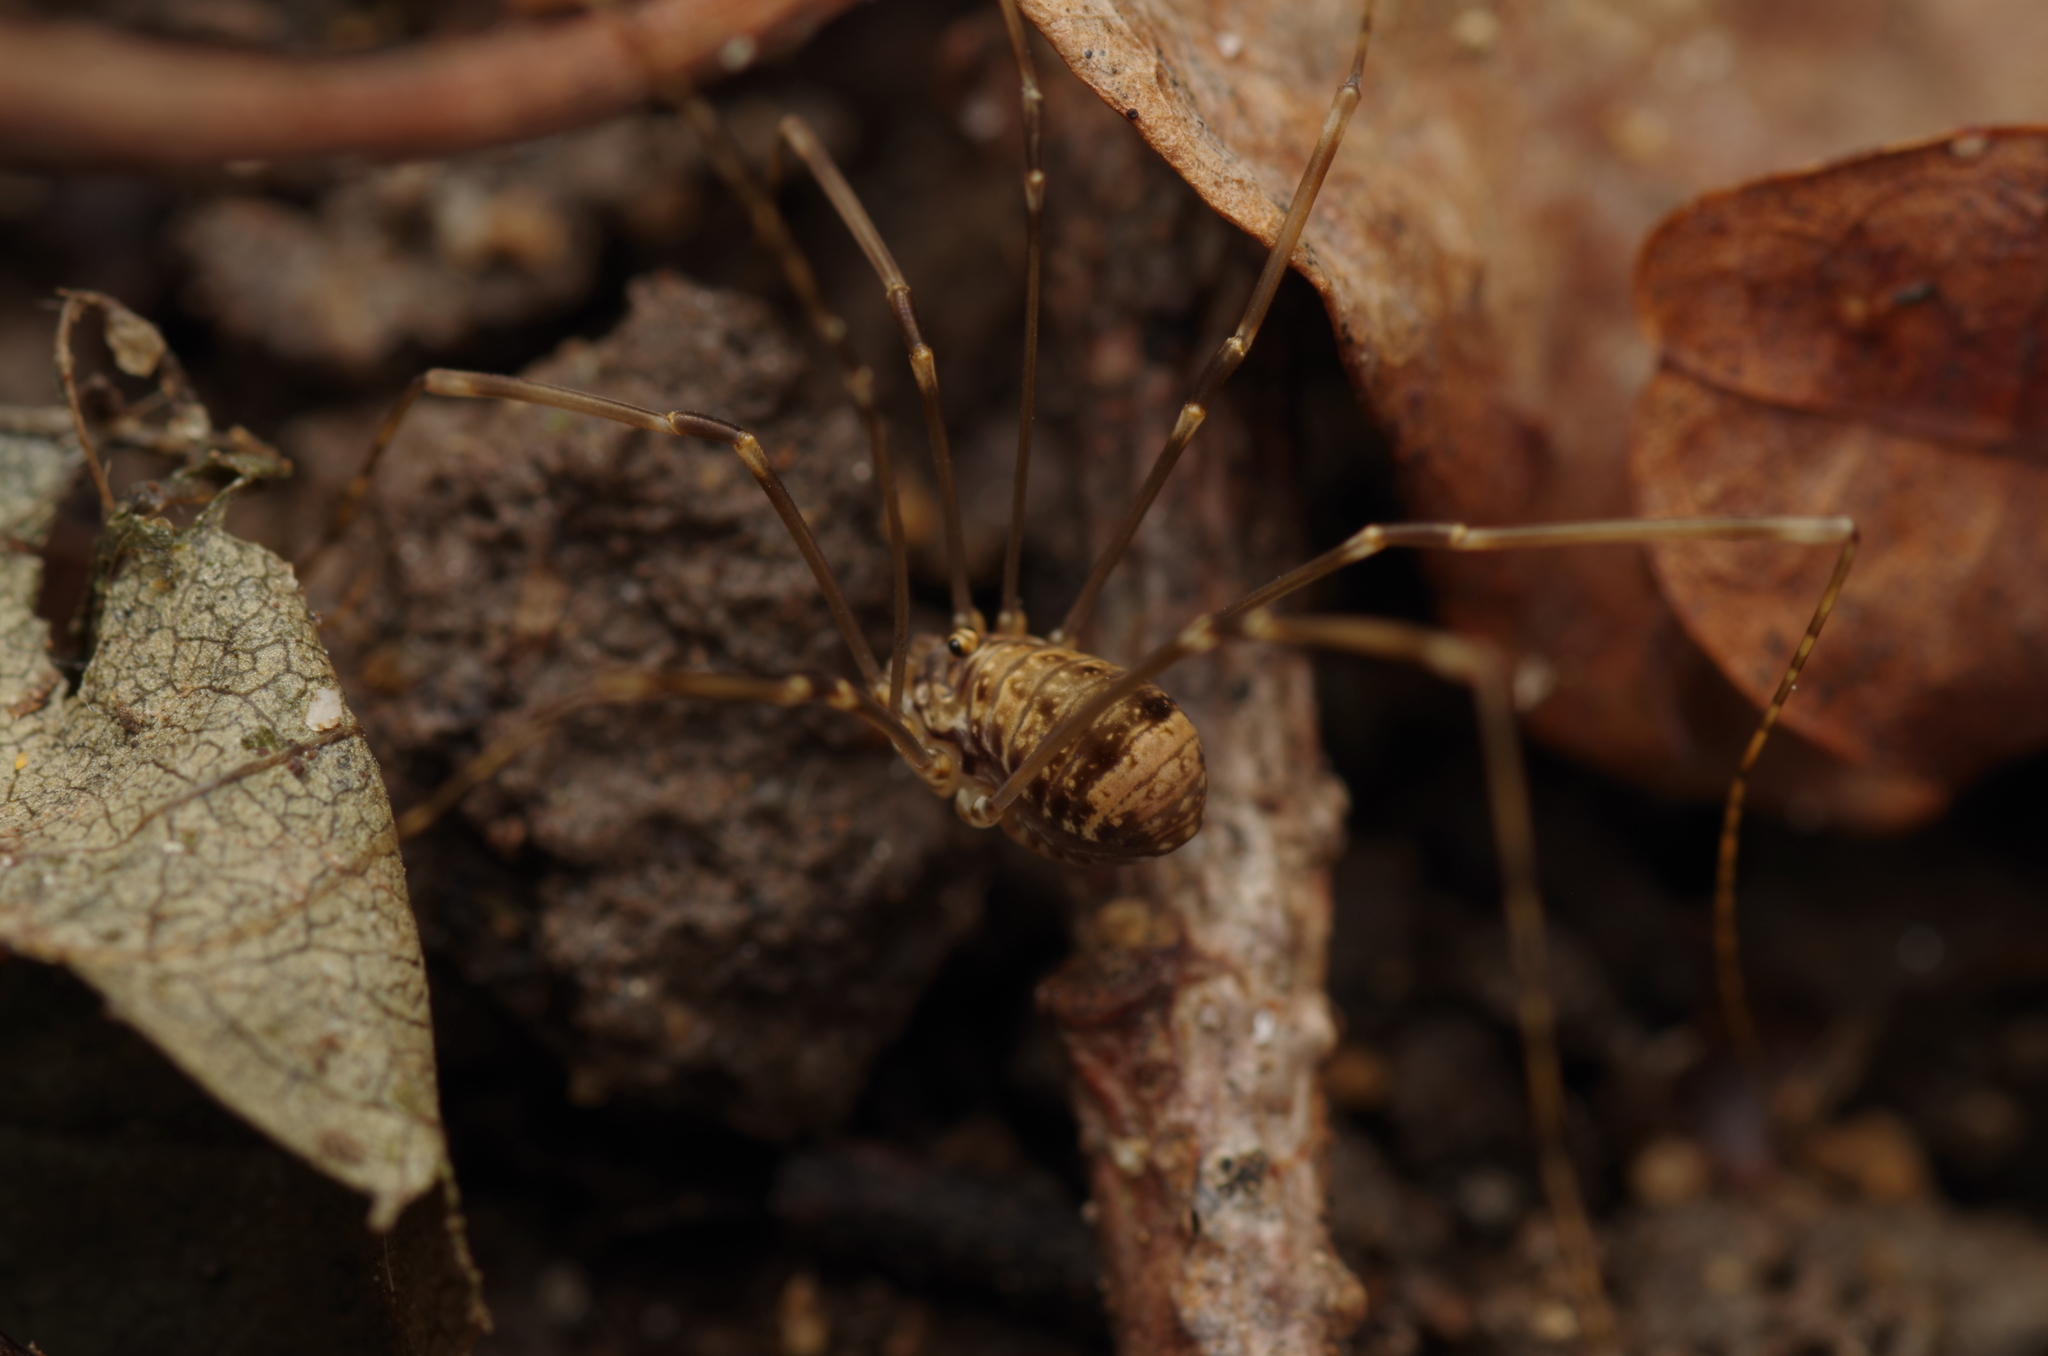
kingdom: Animalia
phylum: Arthropoda
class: Arachnida
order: Opiliones
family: Sclerosomatidae
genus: Leiobunum
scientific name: Leiobunum blackwalli
